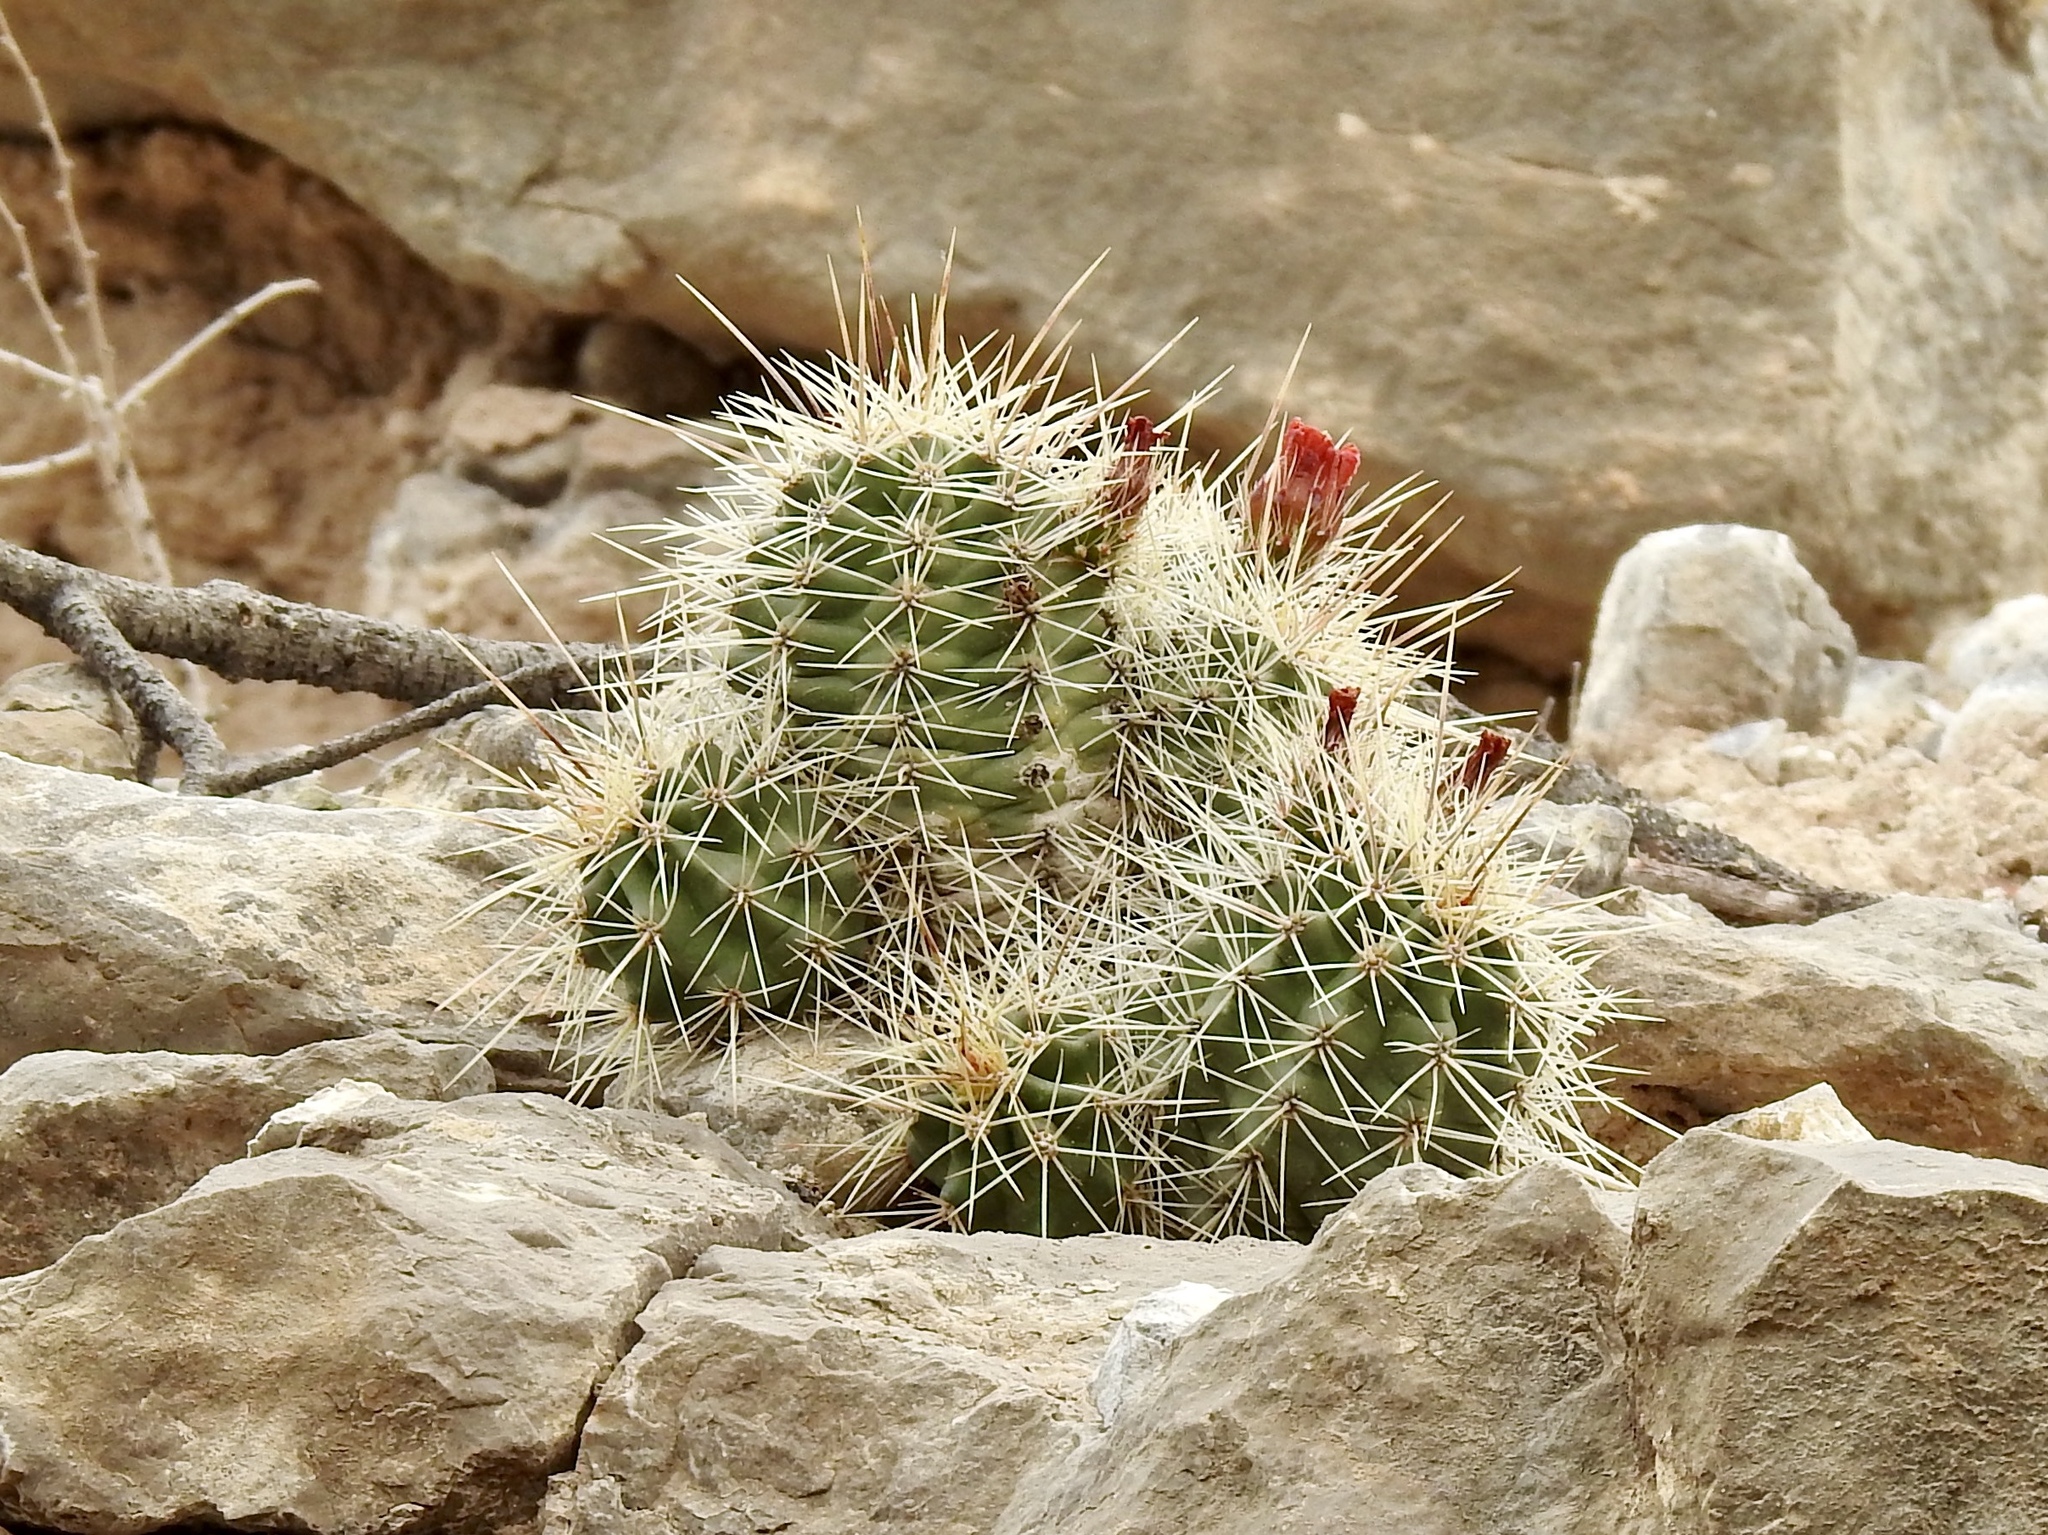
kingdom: Plantae
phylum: Tracheophyta
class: Magnoliopsida
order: Caryophyllales
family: Cactaceae
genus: Echinocereus
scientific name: Echinocereus coccineus
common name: Scarlet hedgehog cactus
